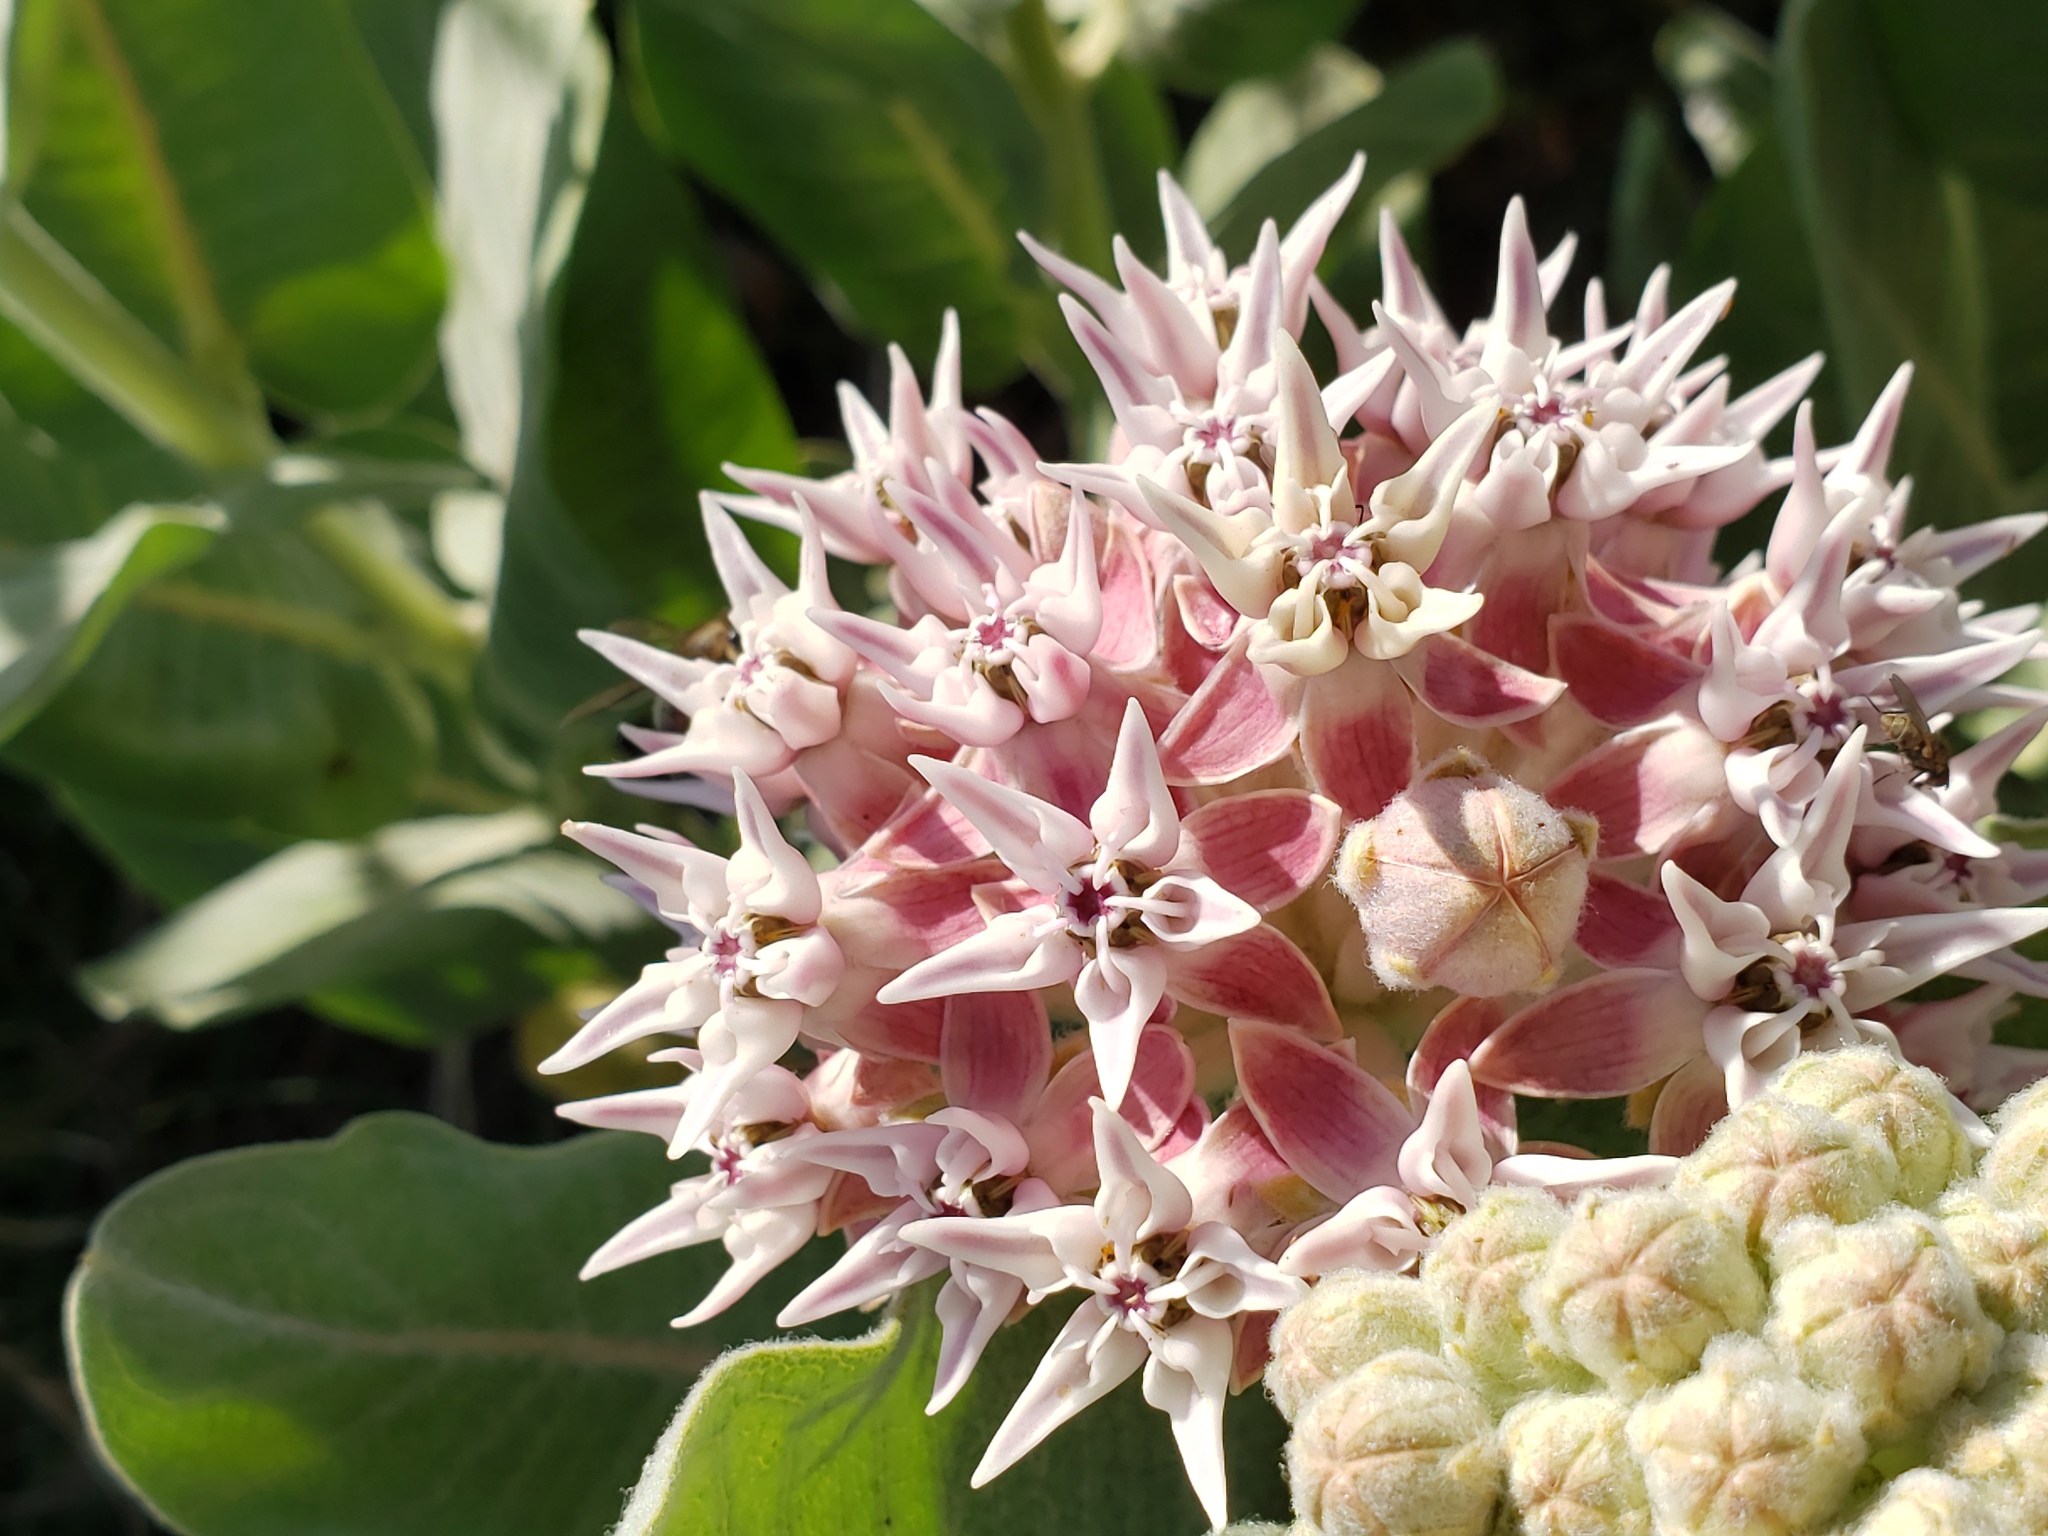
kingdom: Plantae
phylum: Tracheophyta
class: Magnoliopsida
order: Gentianales
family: Apocynaceae
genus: Asclepias
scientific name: Asclepias speciosa
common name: Showy milkweed
